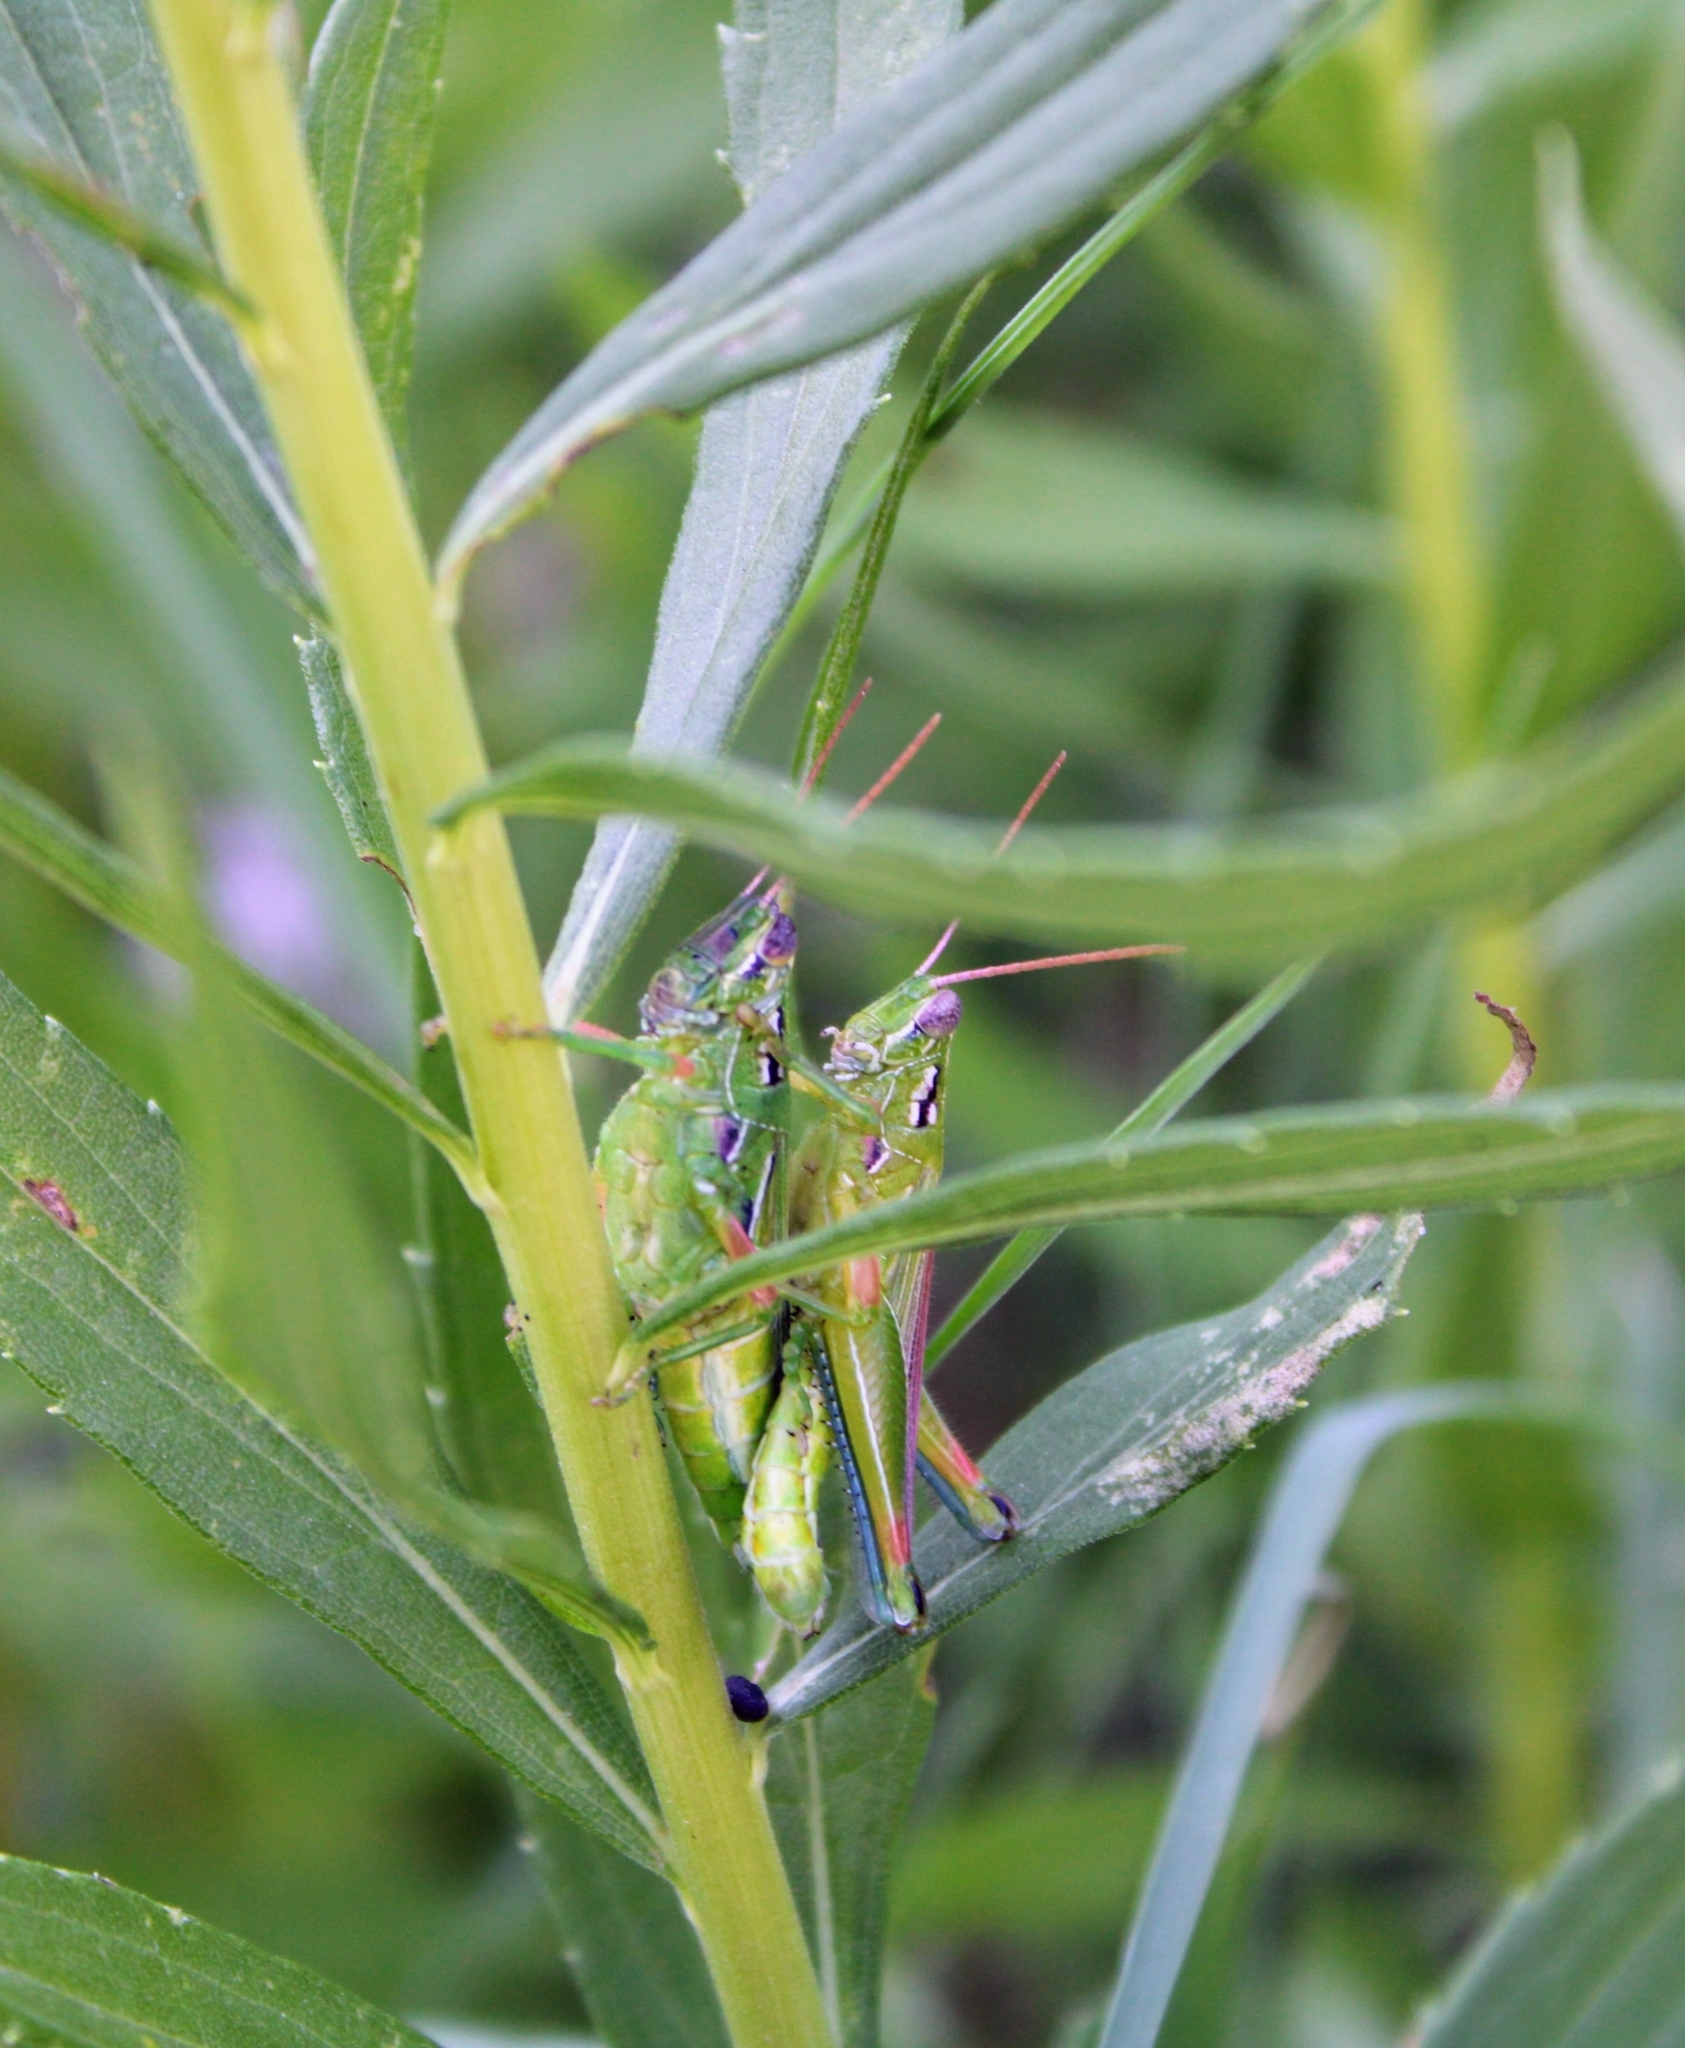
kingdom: Animalia
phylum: Arthropoda
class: Insecta
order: Orthoptera
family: Acrididae
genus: Hesperotettix
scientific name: Hesperotettix viridis
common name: Meadow purple-striped grasshopper
